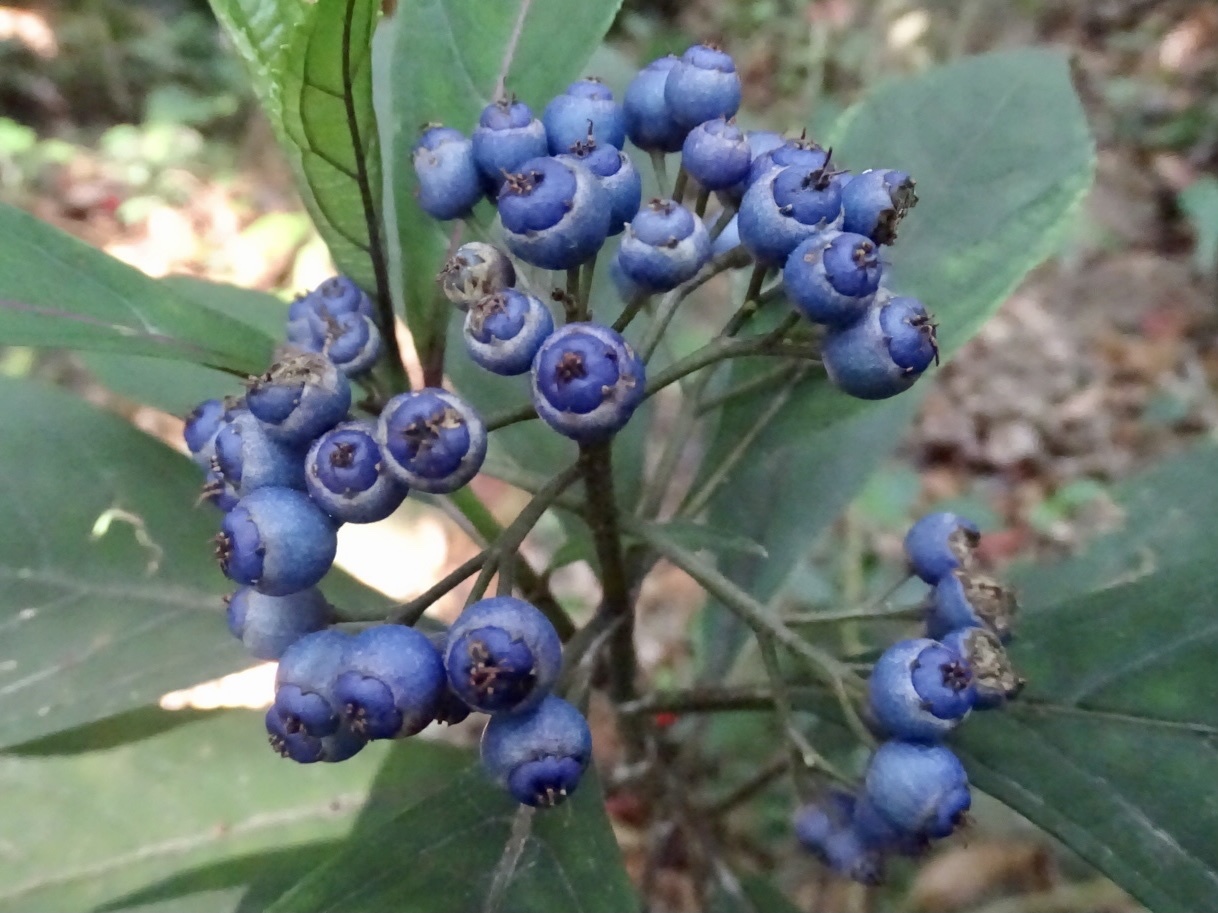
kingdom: Plantae
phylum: Tracheophyta
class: Magnoliopsida
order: Cornales
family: Hydrangeaceae
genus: Hydrangea
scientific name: Hydrangea febrifuga
